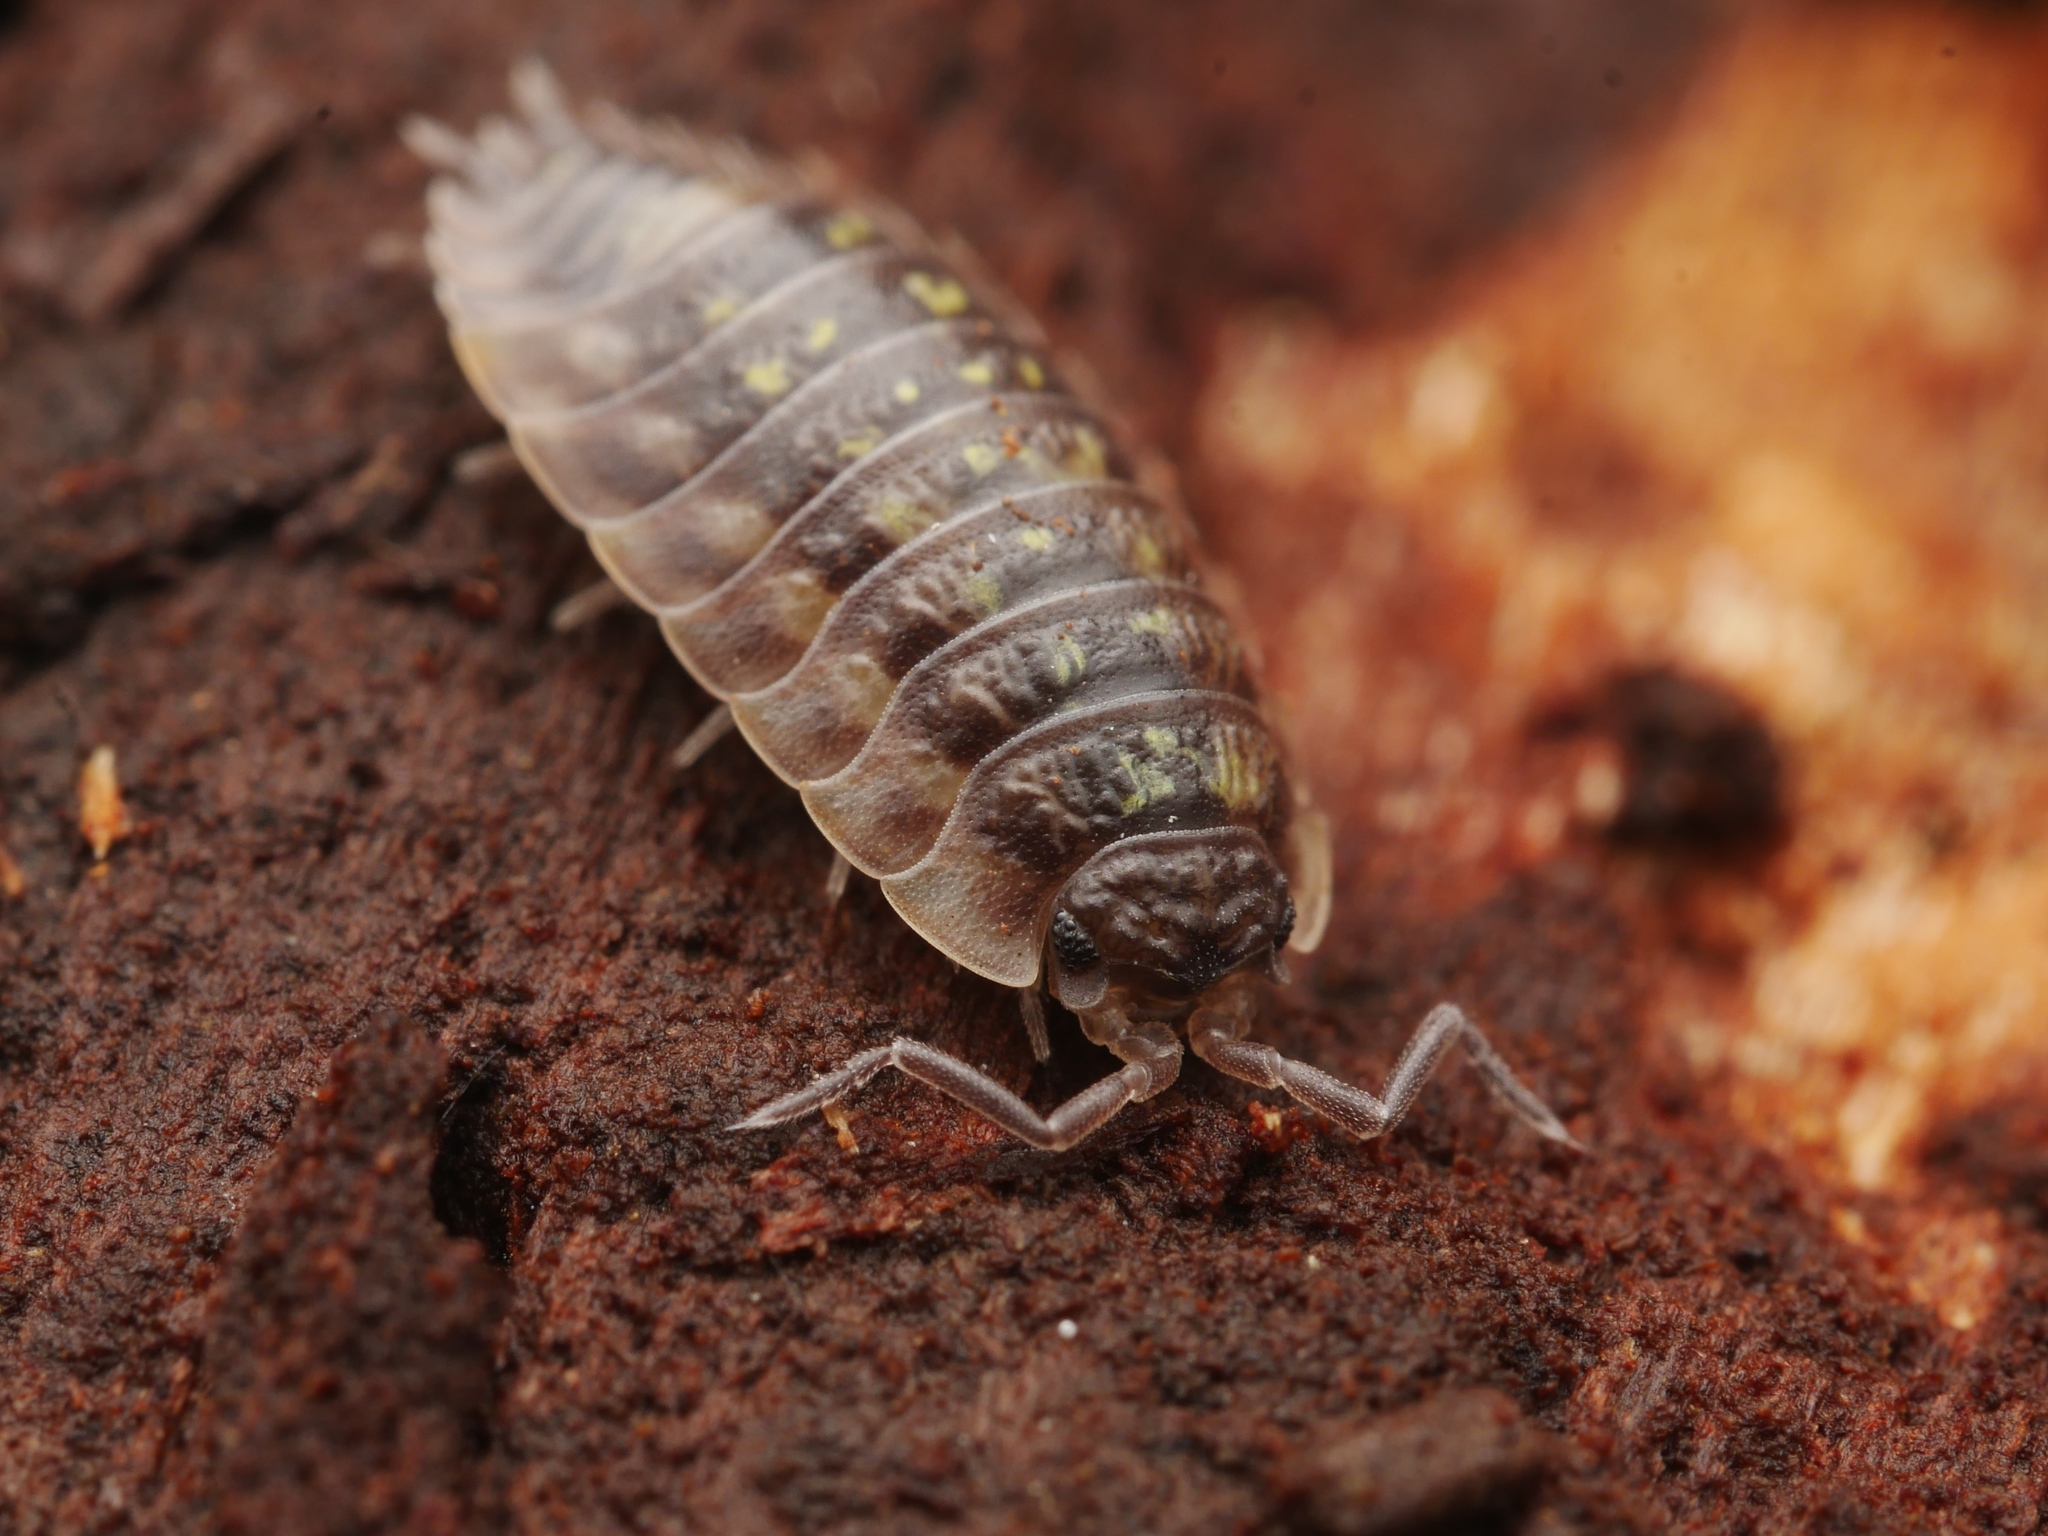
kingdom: Animalia
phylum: Arthropoda
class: Malacostraca
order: Isopoda
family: Oniscidae
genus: Oniscus
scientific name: Oniscus asellus
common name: Common shiny woodlouse
